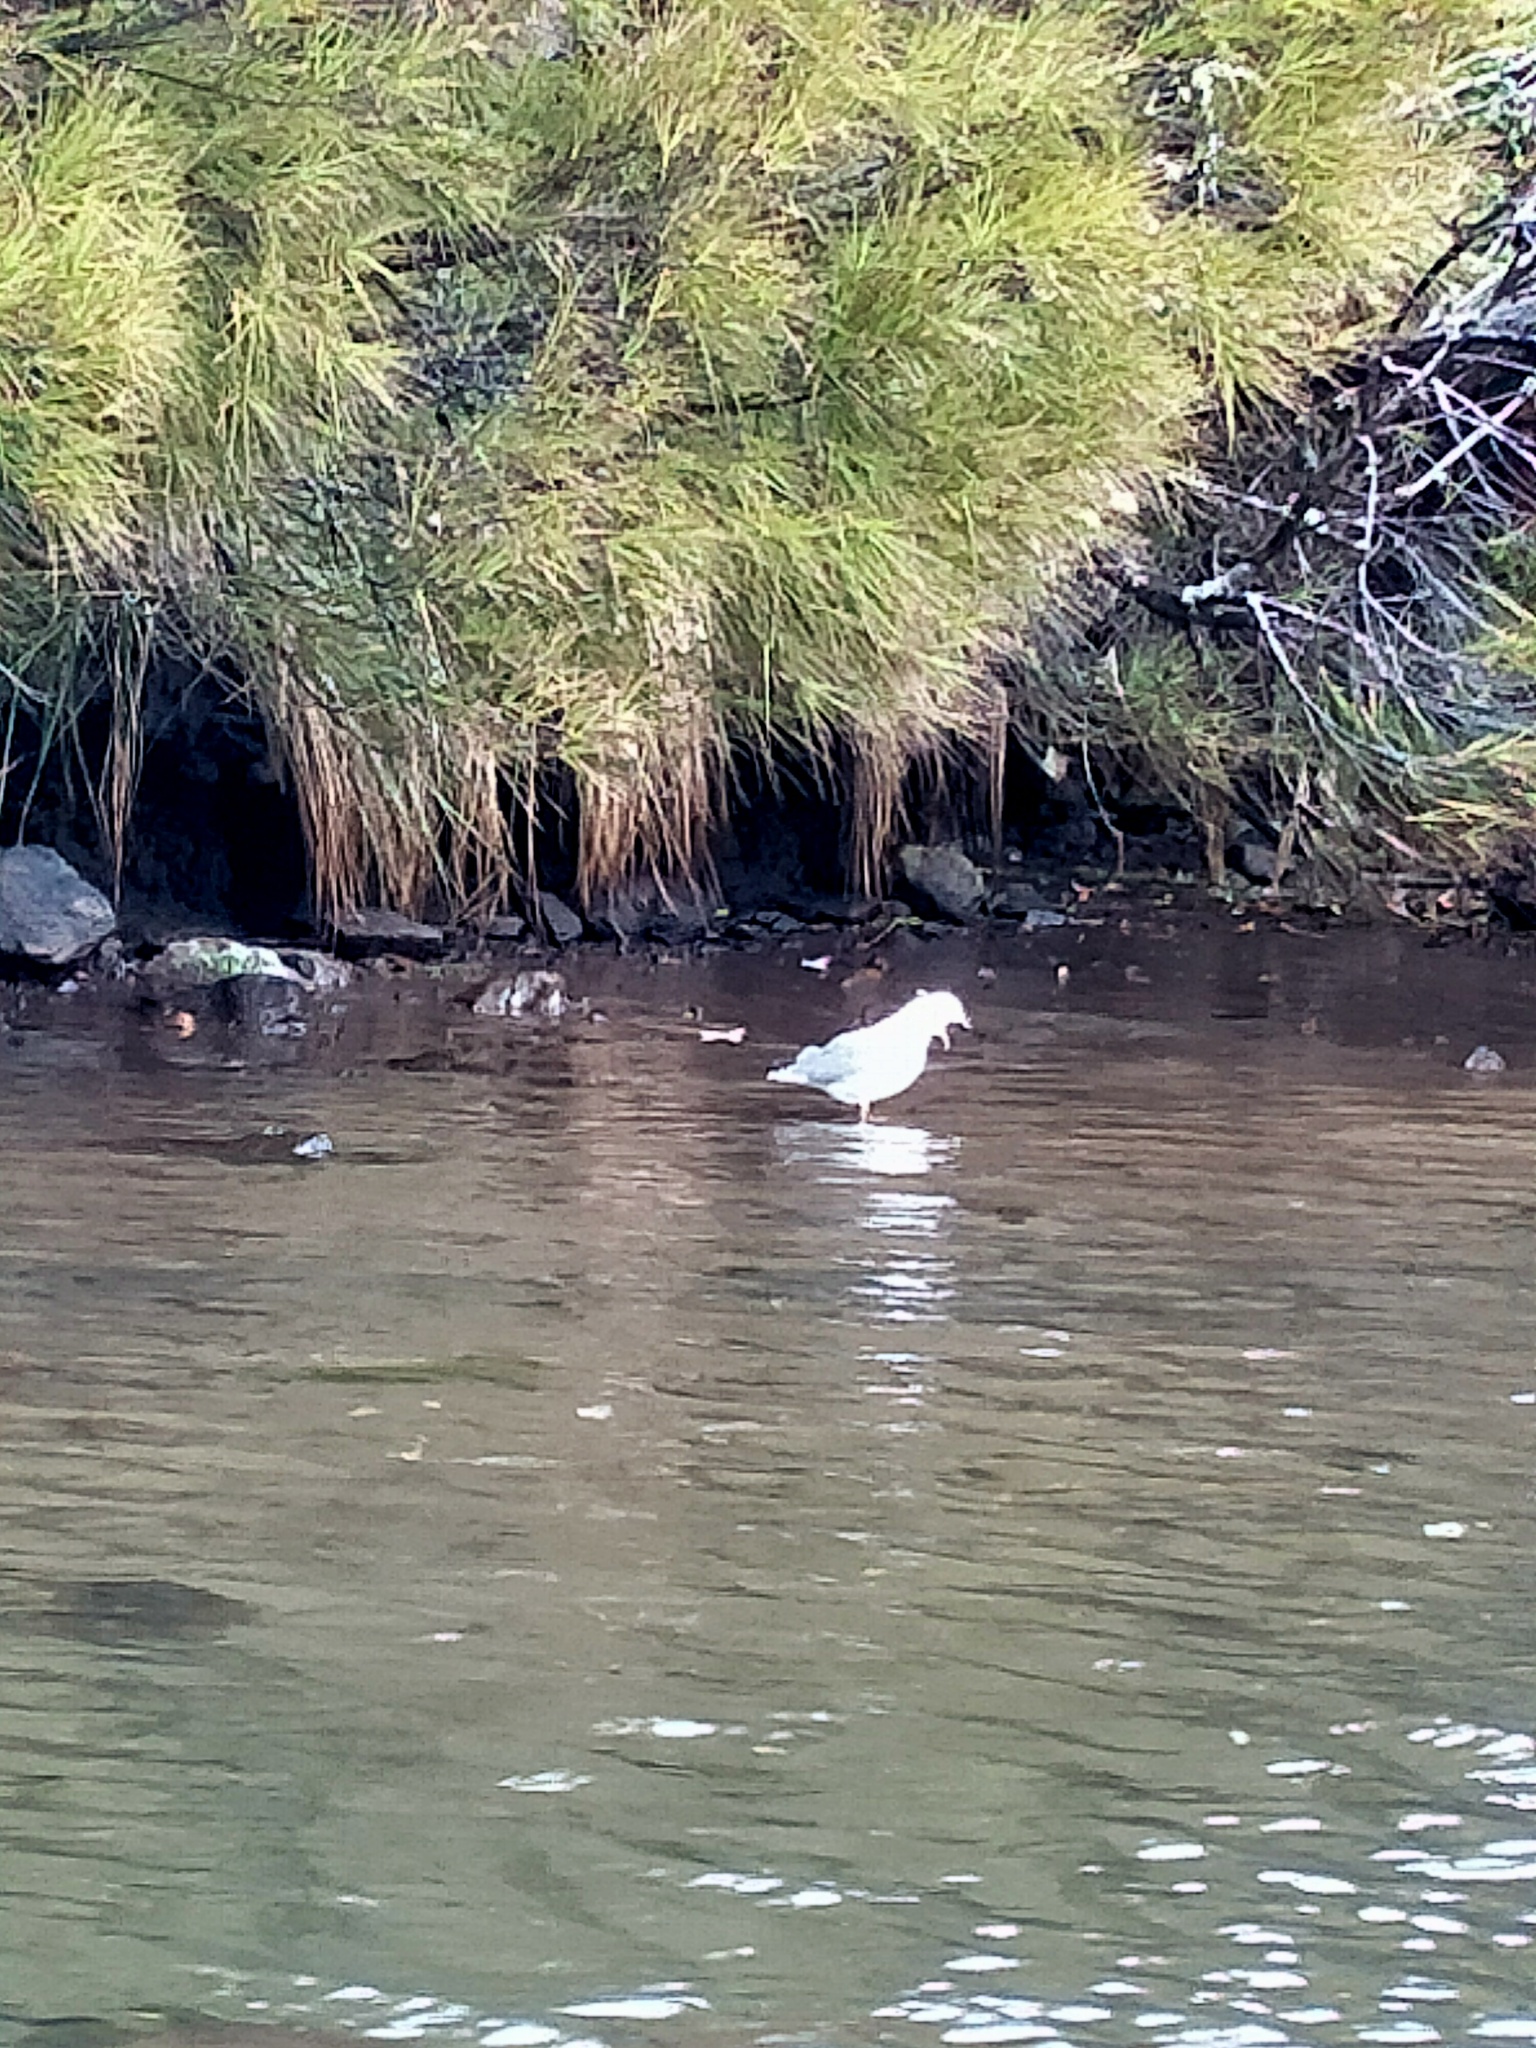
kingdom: Animalia
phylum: Chordata
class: Aves
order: Charadriiformes
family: Laridae
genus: Chroicocephalus
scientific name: Chroicocephalus novaehollandiae
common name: Silver gull
